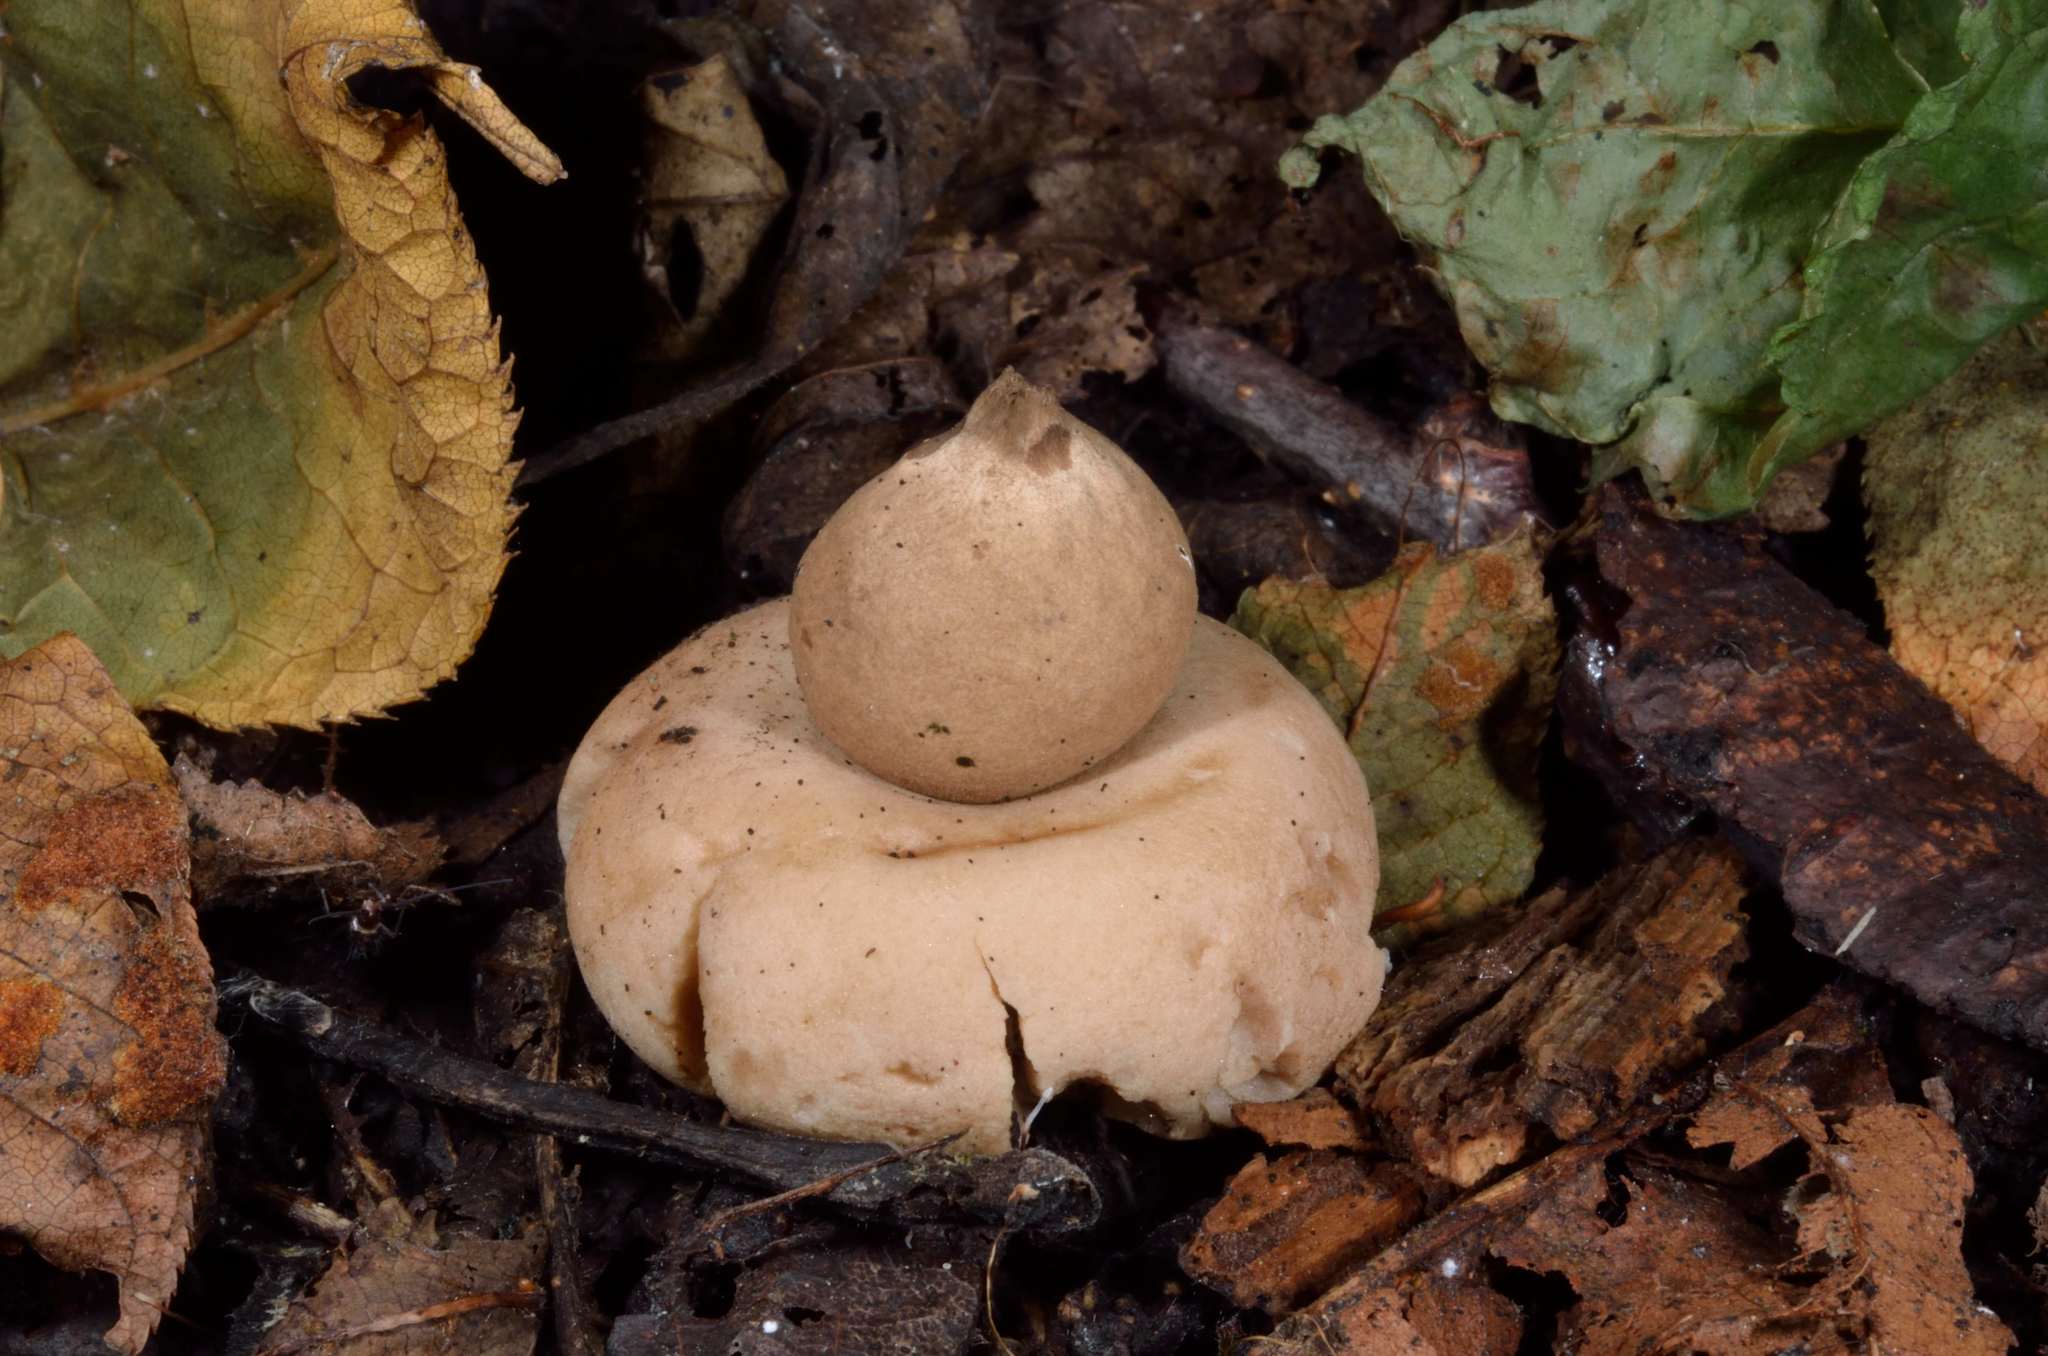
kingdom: Fungi
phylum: Basidiomycota
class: Agaricomycetes
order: Geastrales
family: Geastraceae
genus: Geastrum
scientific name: Geastrum fimbriatum
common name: Sessile earthstar
